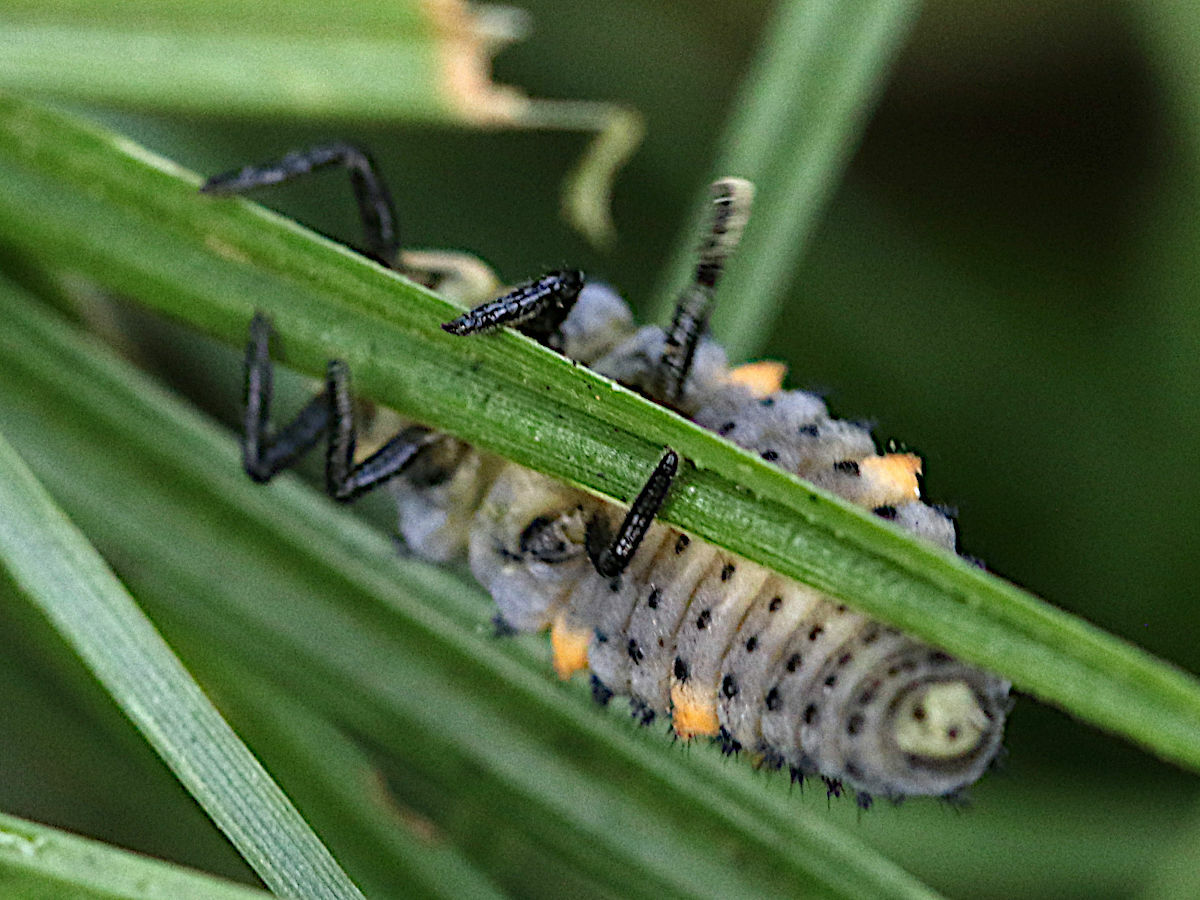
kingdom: Animalia
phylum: Arthropoda
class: Insecta
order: Coleoptera
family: Coccinellidae
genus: Coccinella
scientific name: Coccinella septempunctata
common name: Sevenspotted lady beetle
